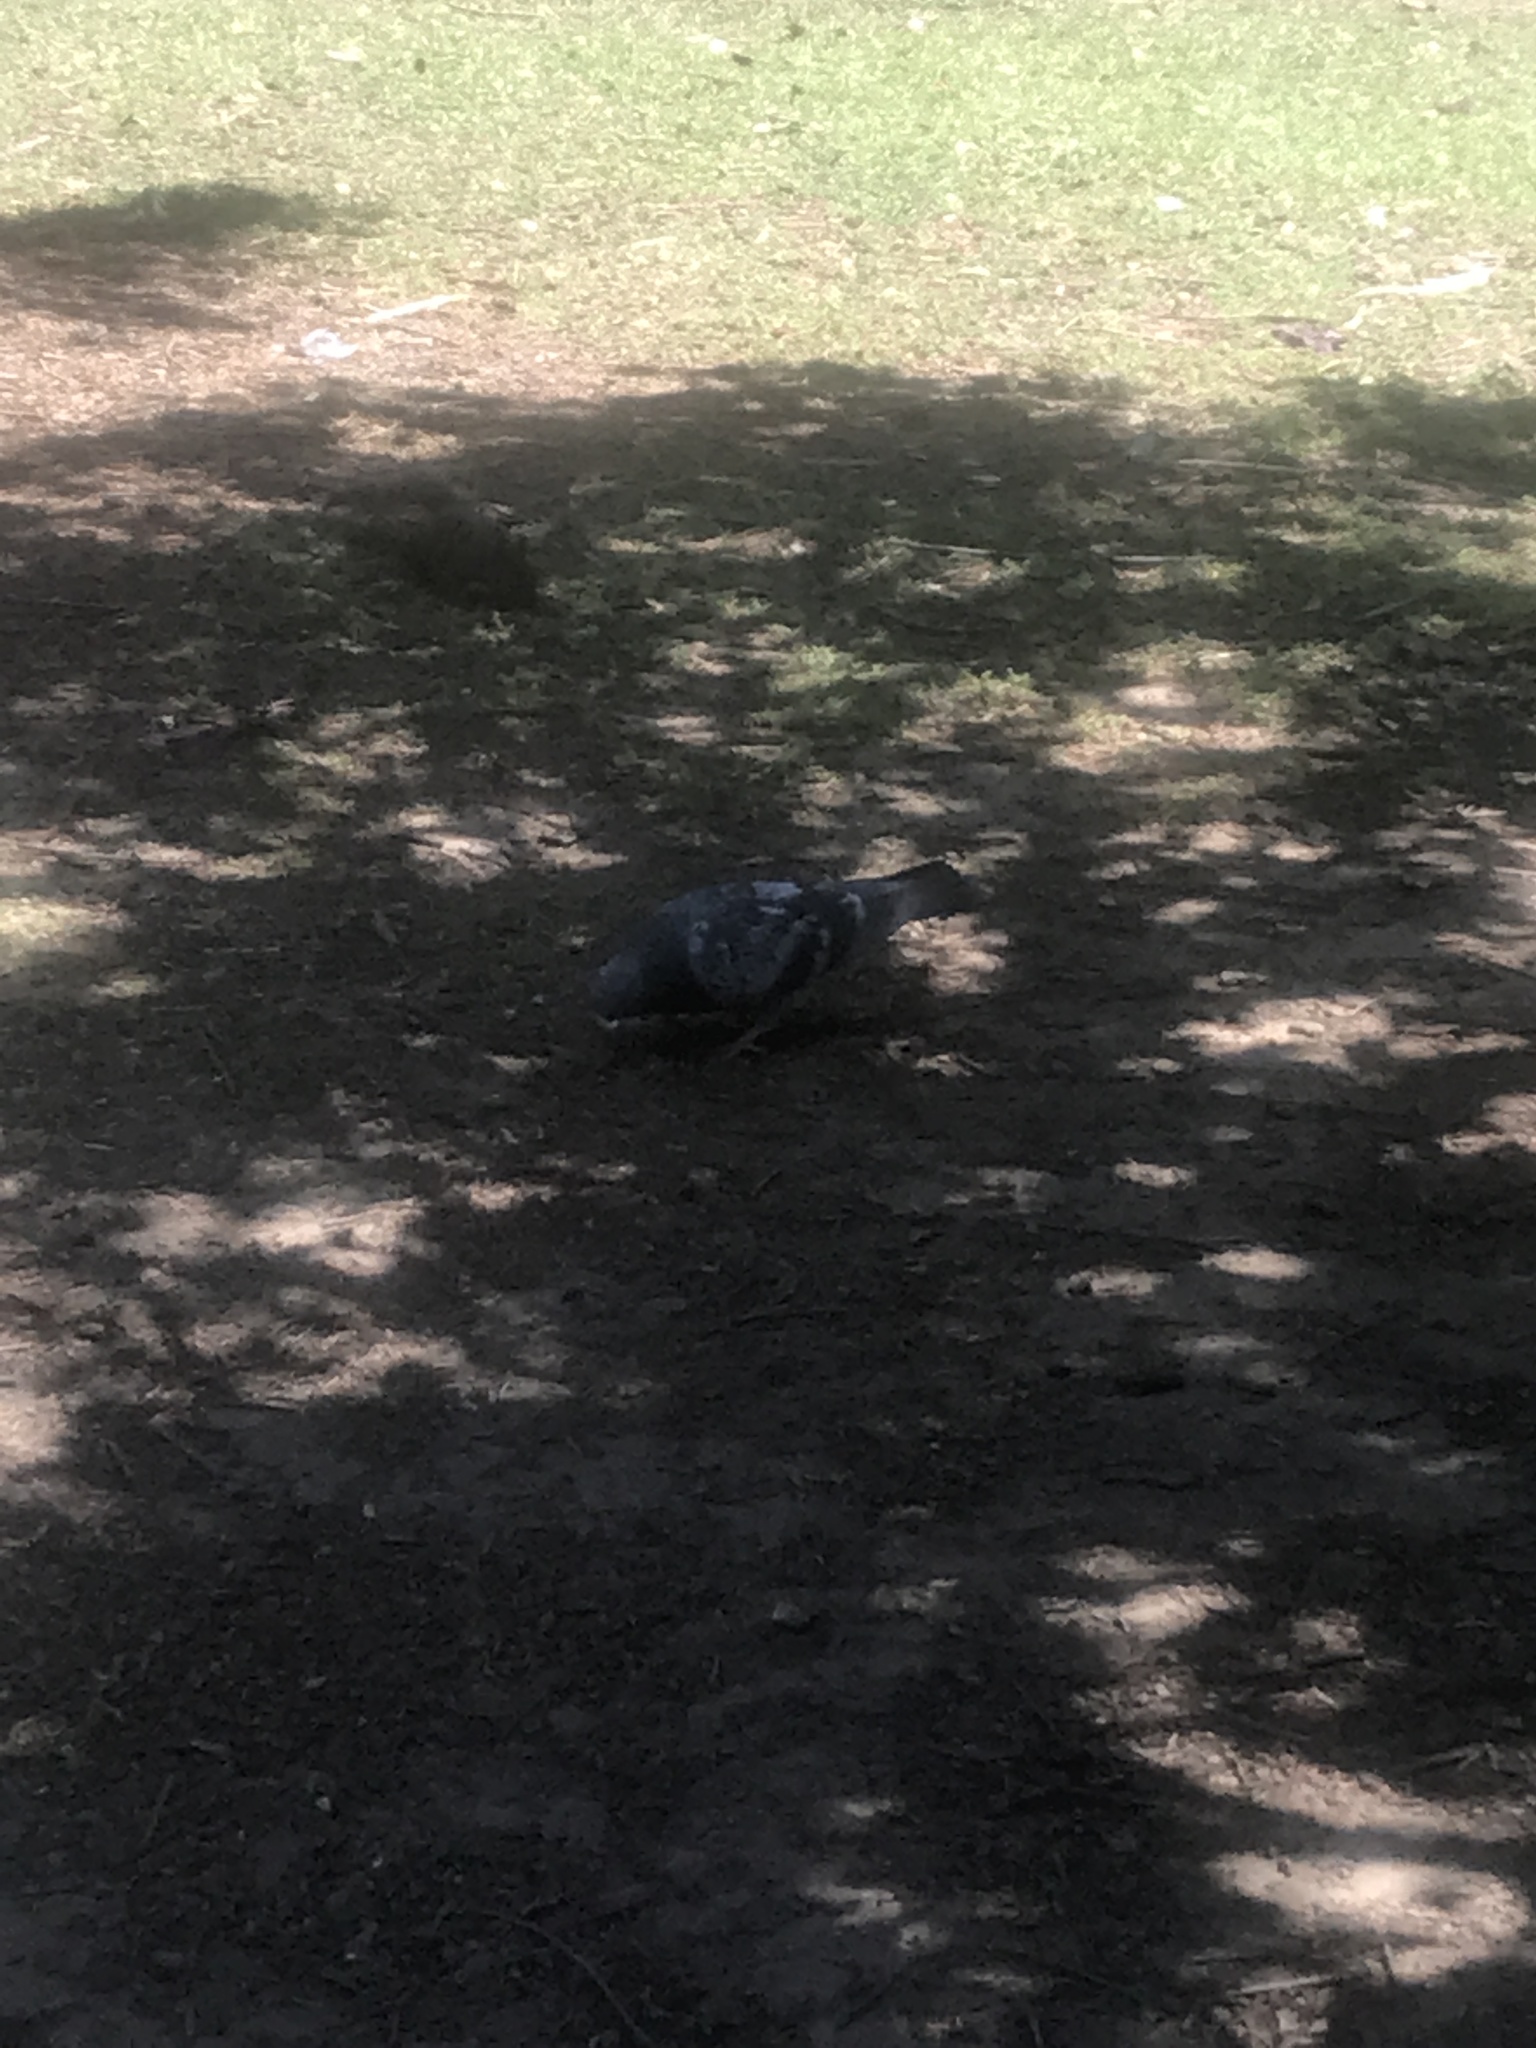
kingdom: Animalia
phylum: Chordata
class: Aves
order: Columbiformes
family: Columbidae
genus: Columba
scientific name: Columba livia
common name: Rock pigeon
